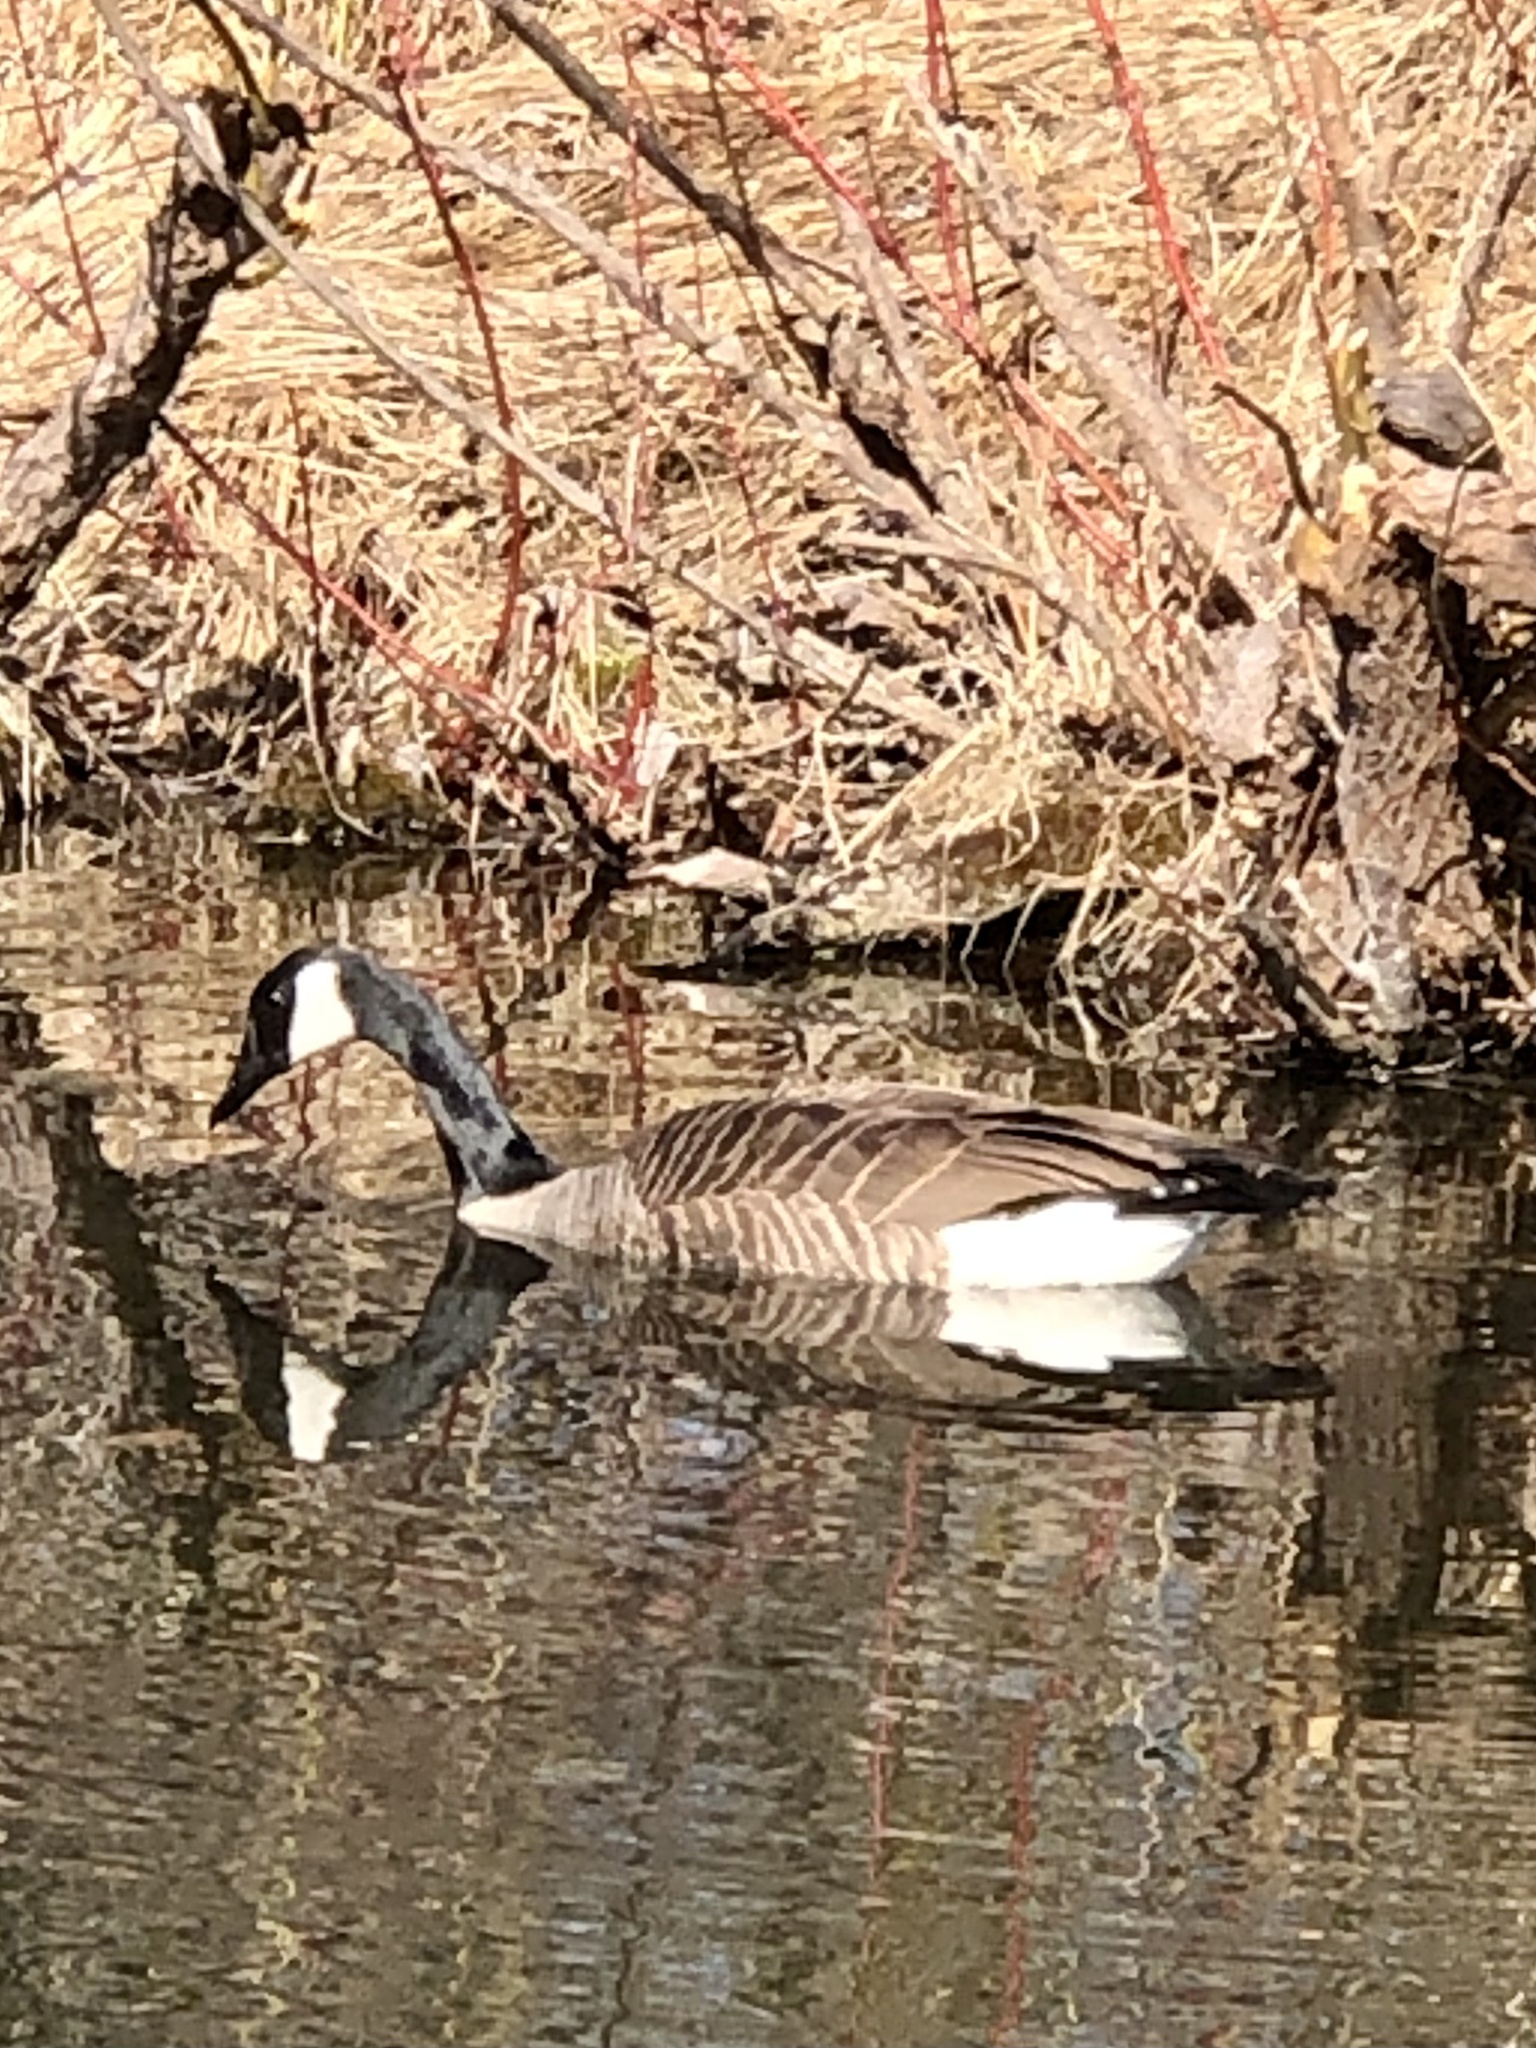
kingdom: Animalia
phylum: Chordata
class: Aves
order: Anseriformes
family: Anatidae
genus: Branta
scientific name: Branta canadensis
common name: Canada goose
